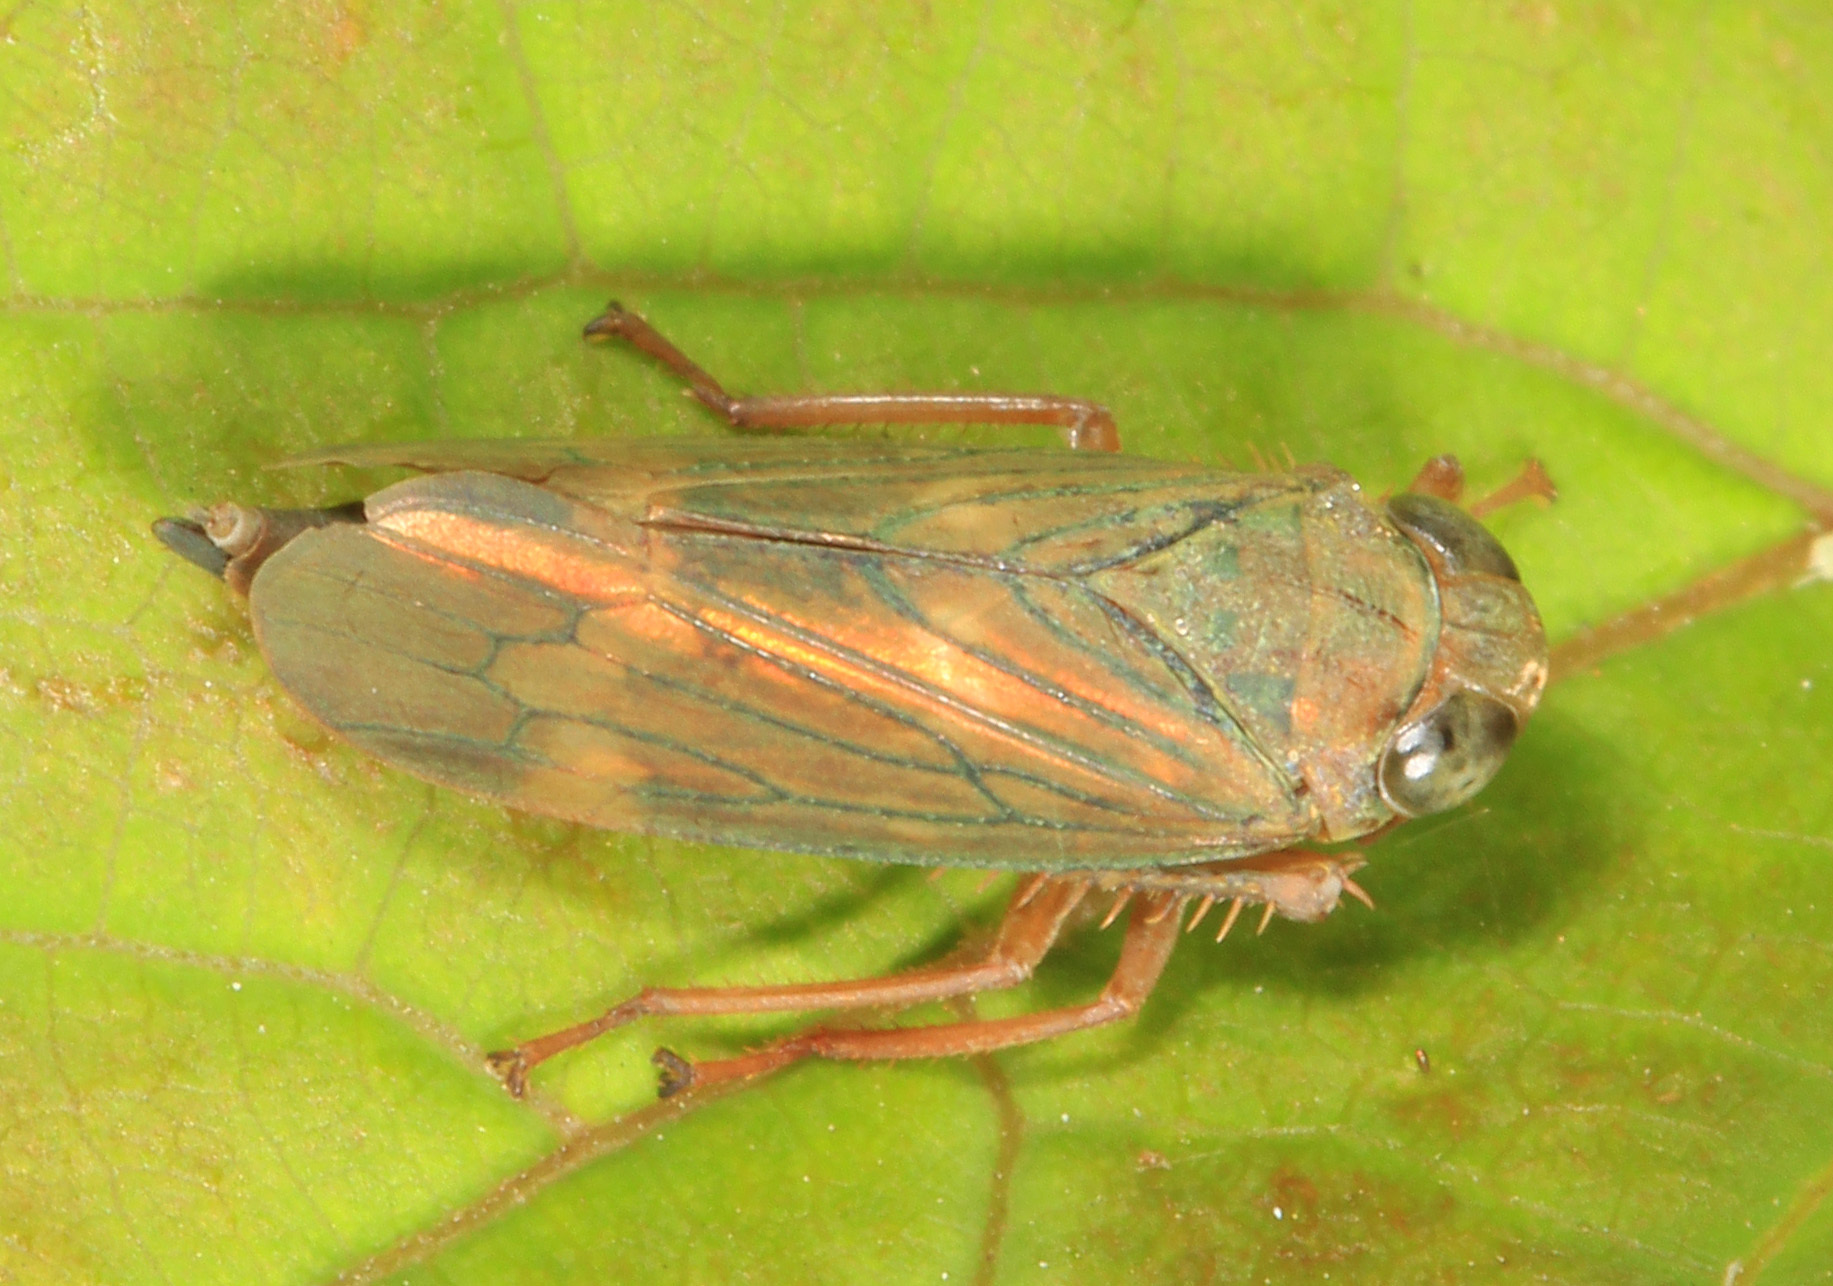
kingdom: Animalia
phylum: Arthropoda
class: Insecta
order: Hemiptera
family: Cicadellidae
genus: Jikradia
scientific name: Jikradia olitoria
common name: Coppery leafhopper
